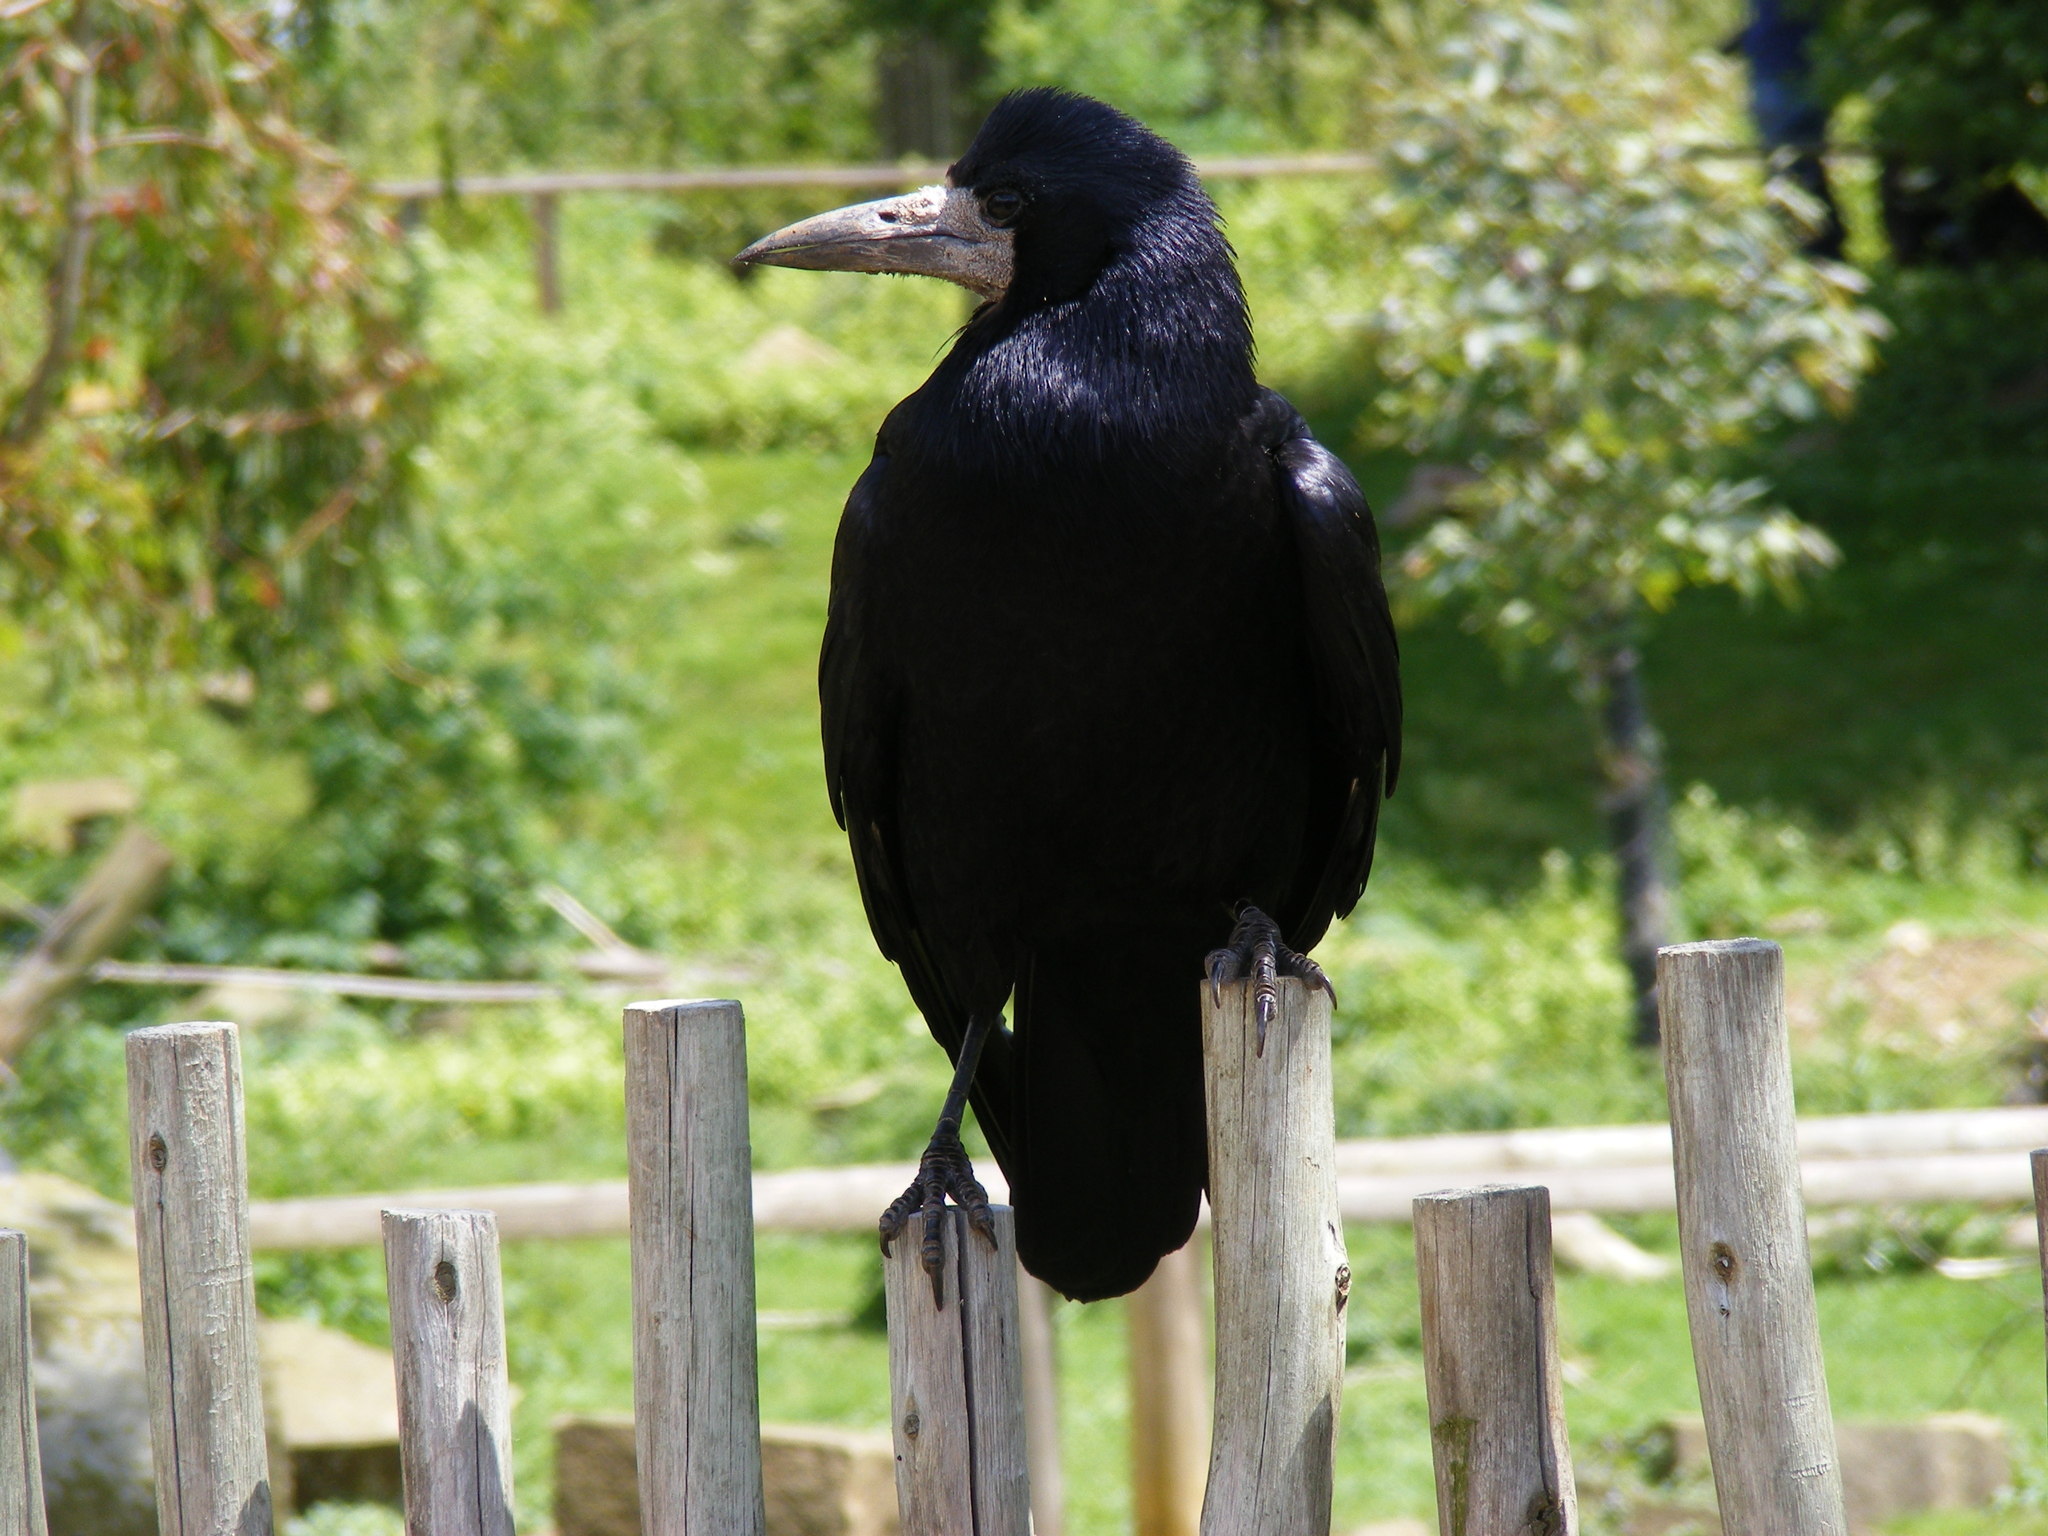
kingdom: Animalia
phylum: Chordata
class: Aves
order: Passeriformes
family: Corvidae
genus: Corvus
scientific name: Corvus frugilegus
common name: Rook
